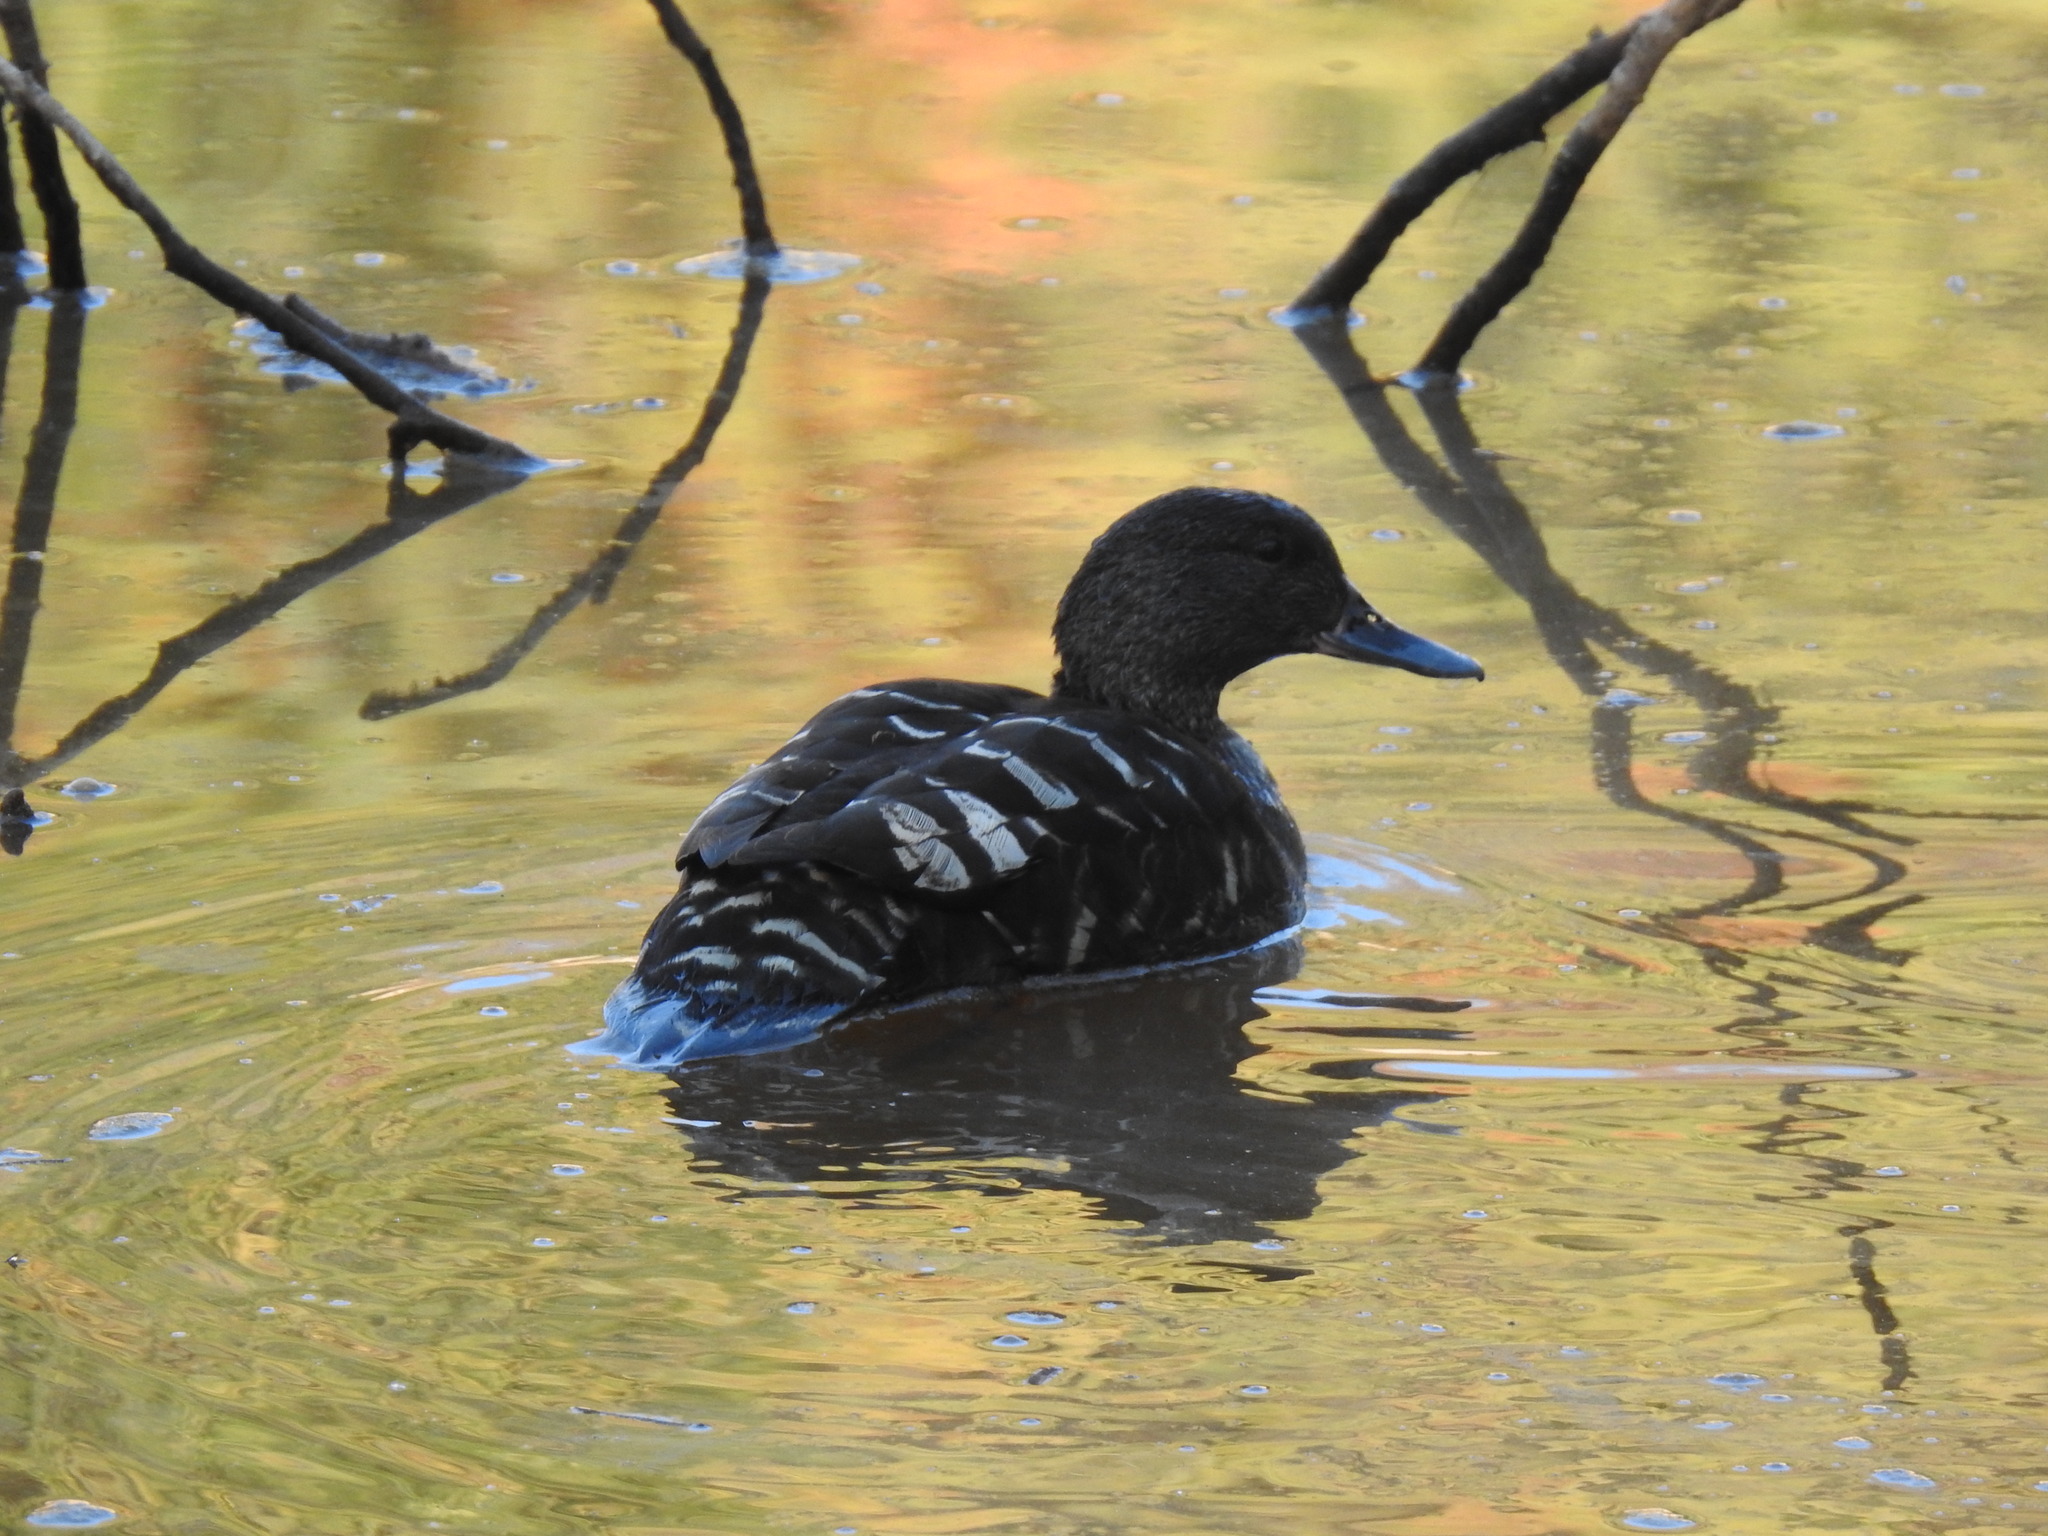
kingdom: Animalia
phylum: Chordata
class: Aves
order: Anseriformes
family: Anatidae
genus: Anas
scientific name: Anas sparsa
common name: African black duck
